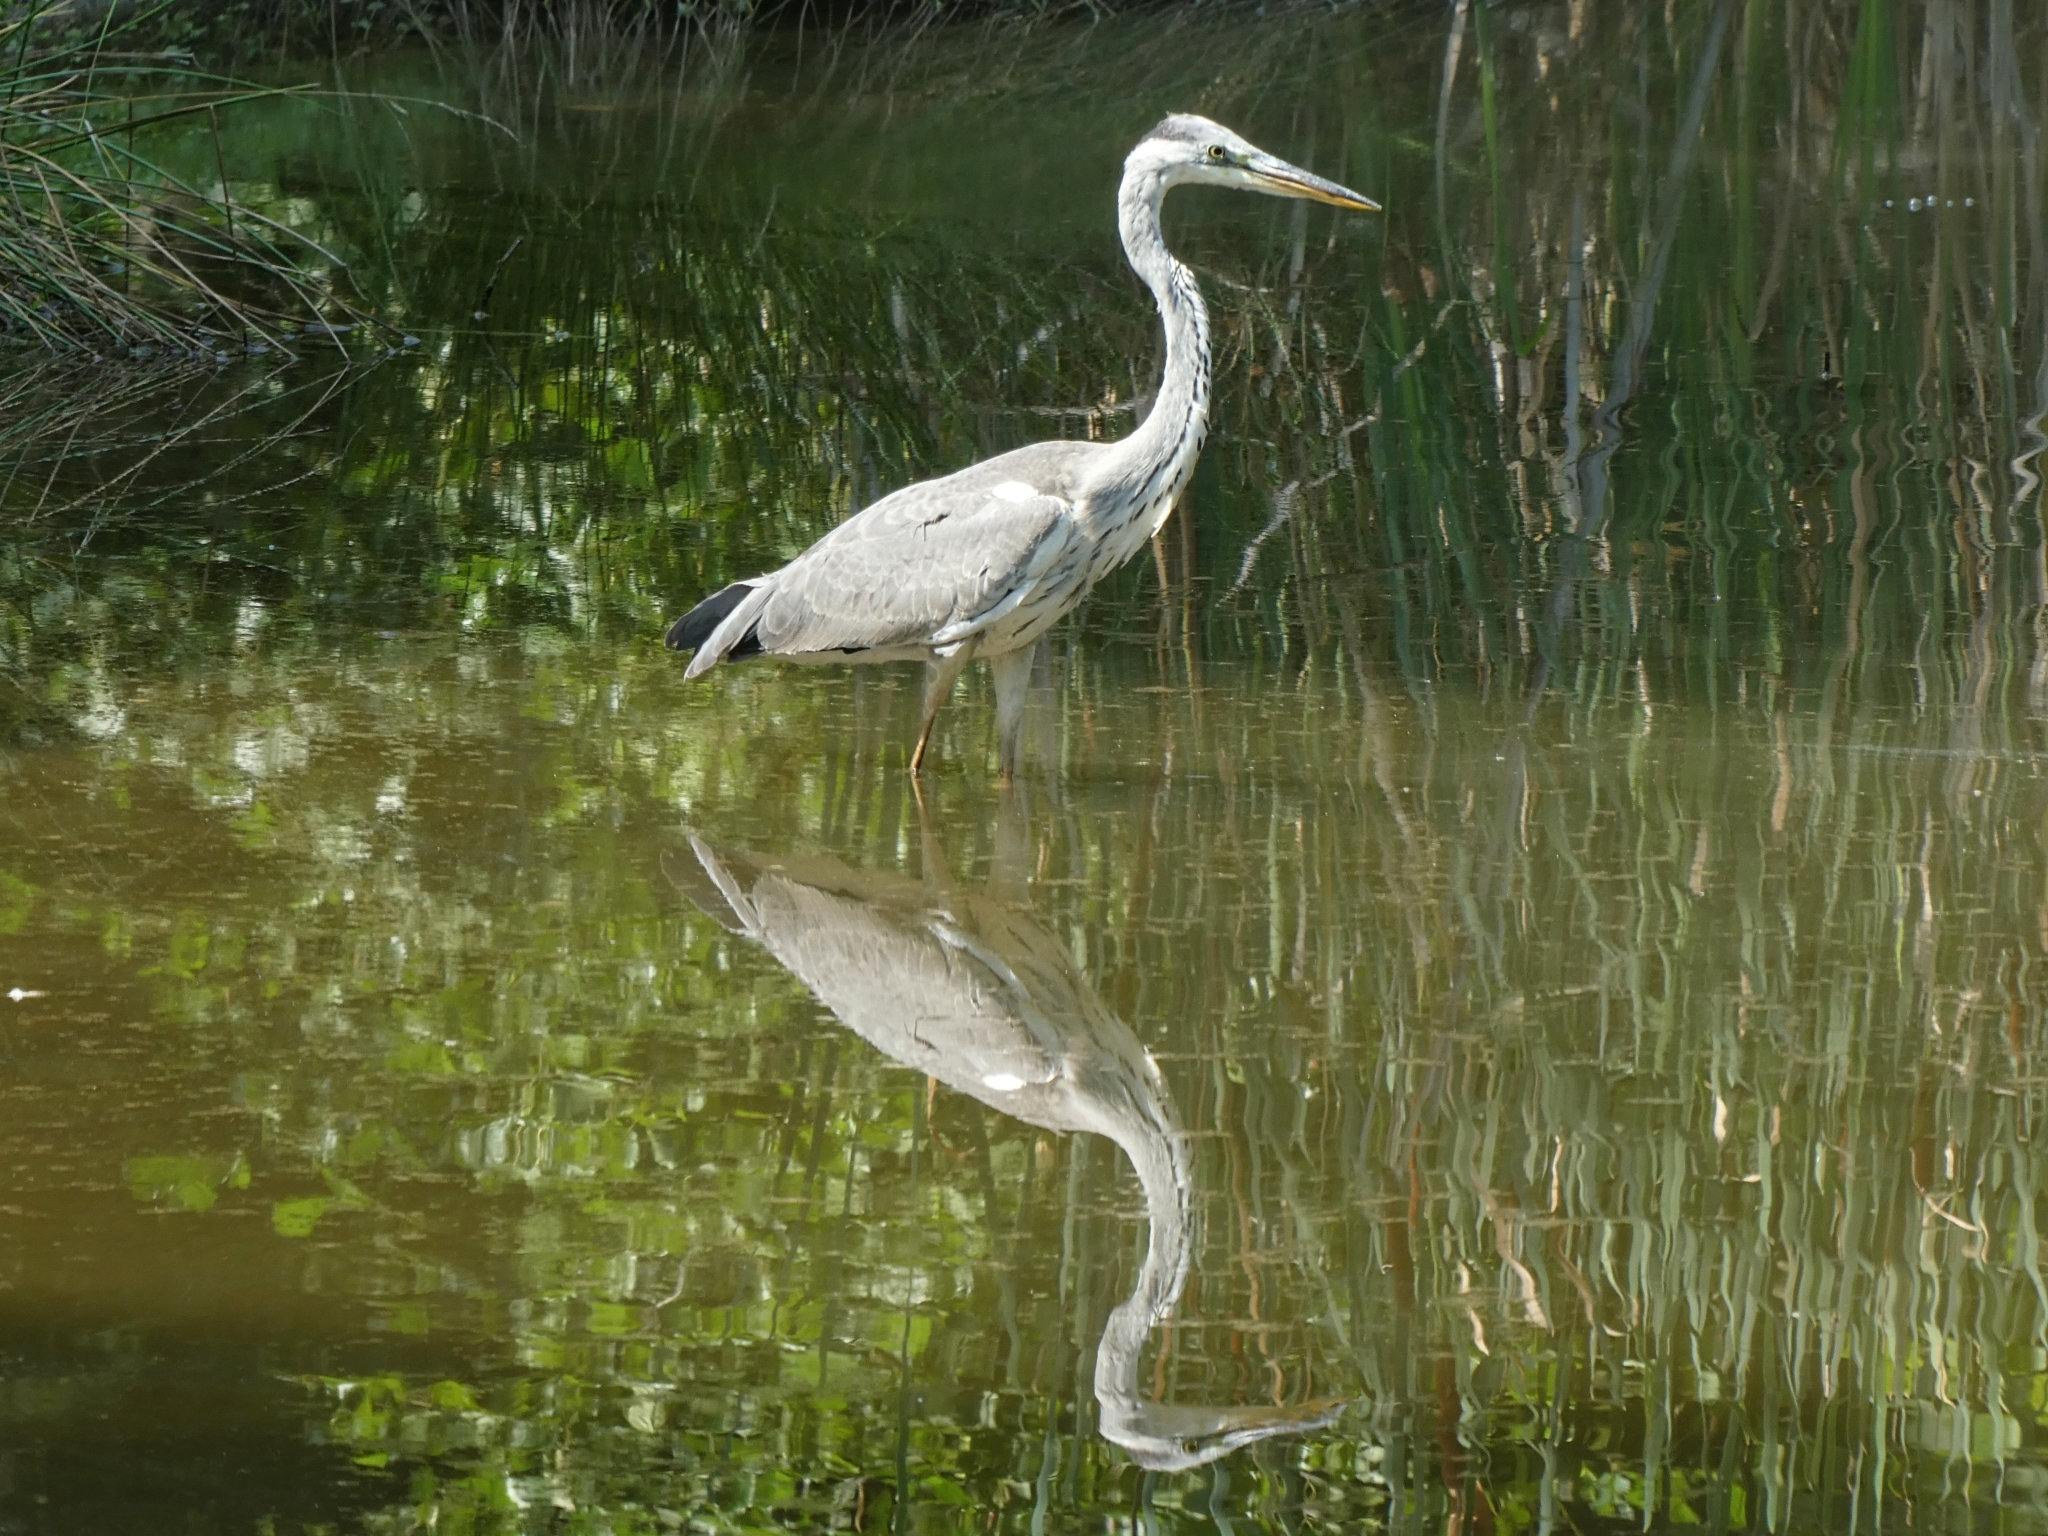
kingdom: Animalia
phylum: Chordata
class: Aves
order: Pelecaniformes
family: Ardeidae
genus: Ardea
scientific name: Ardea cinerea
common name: Grey heron
